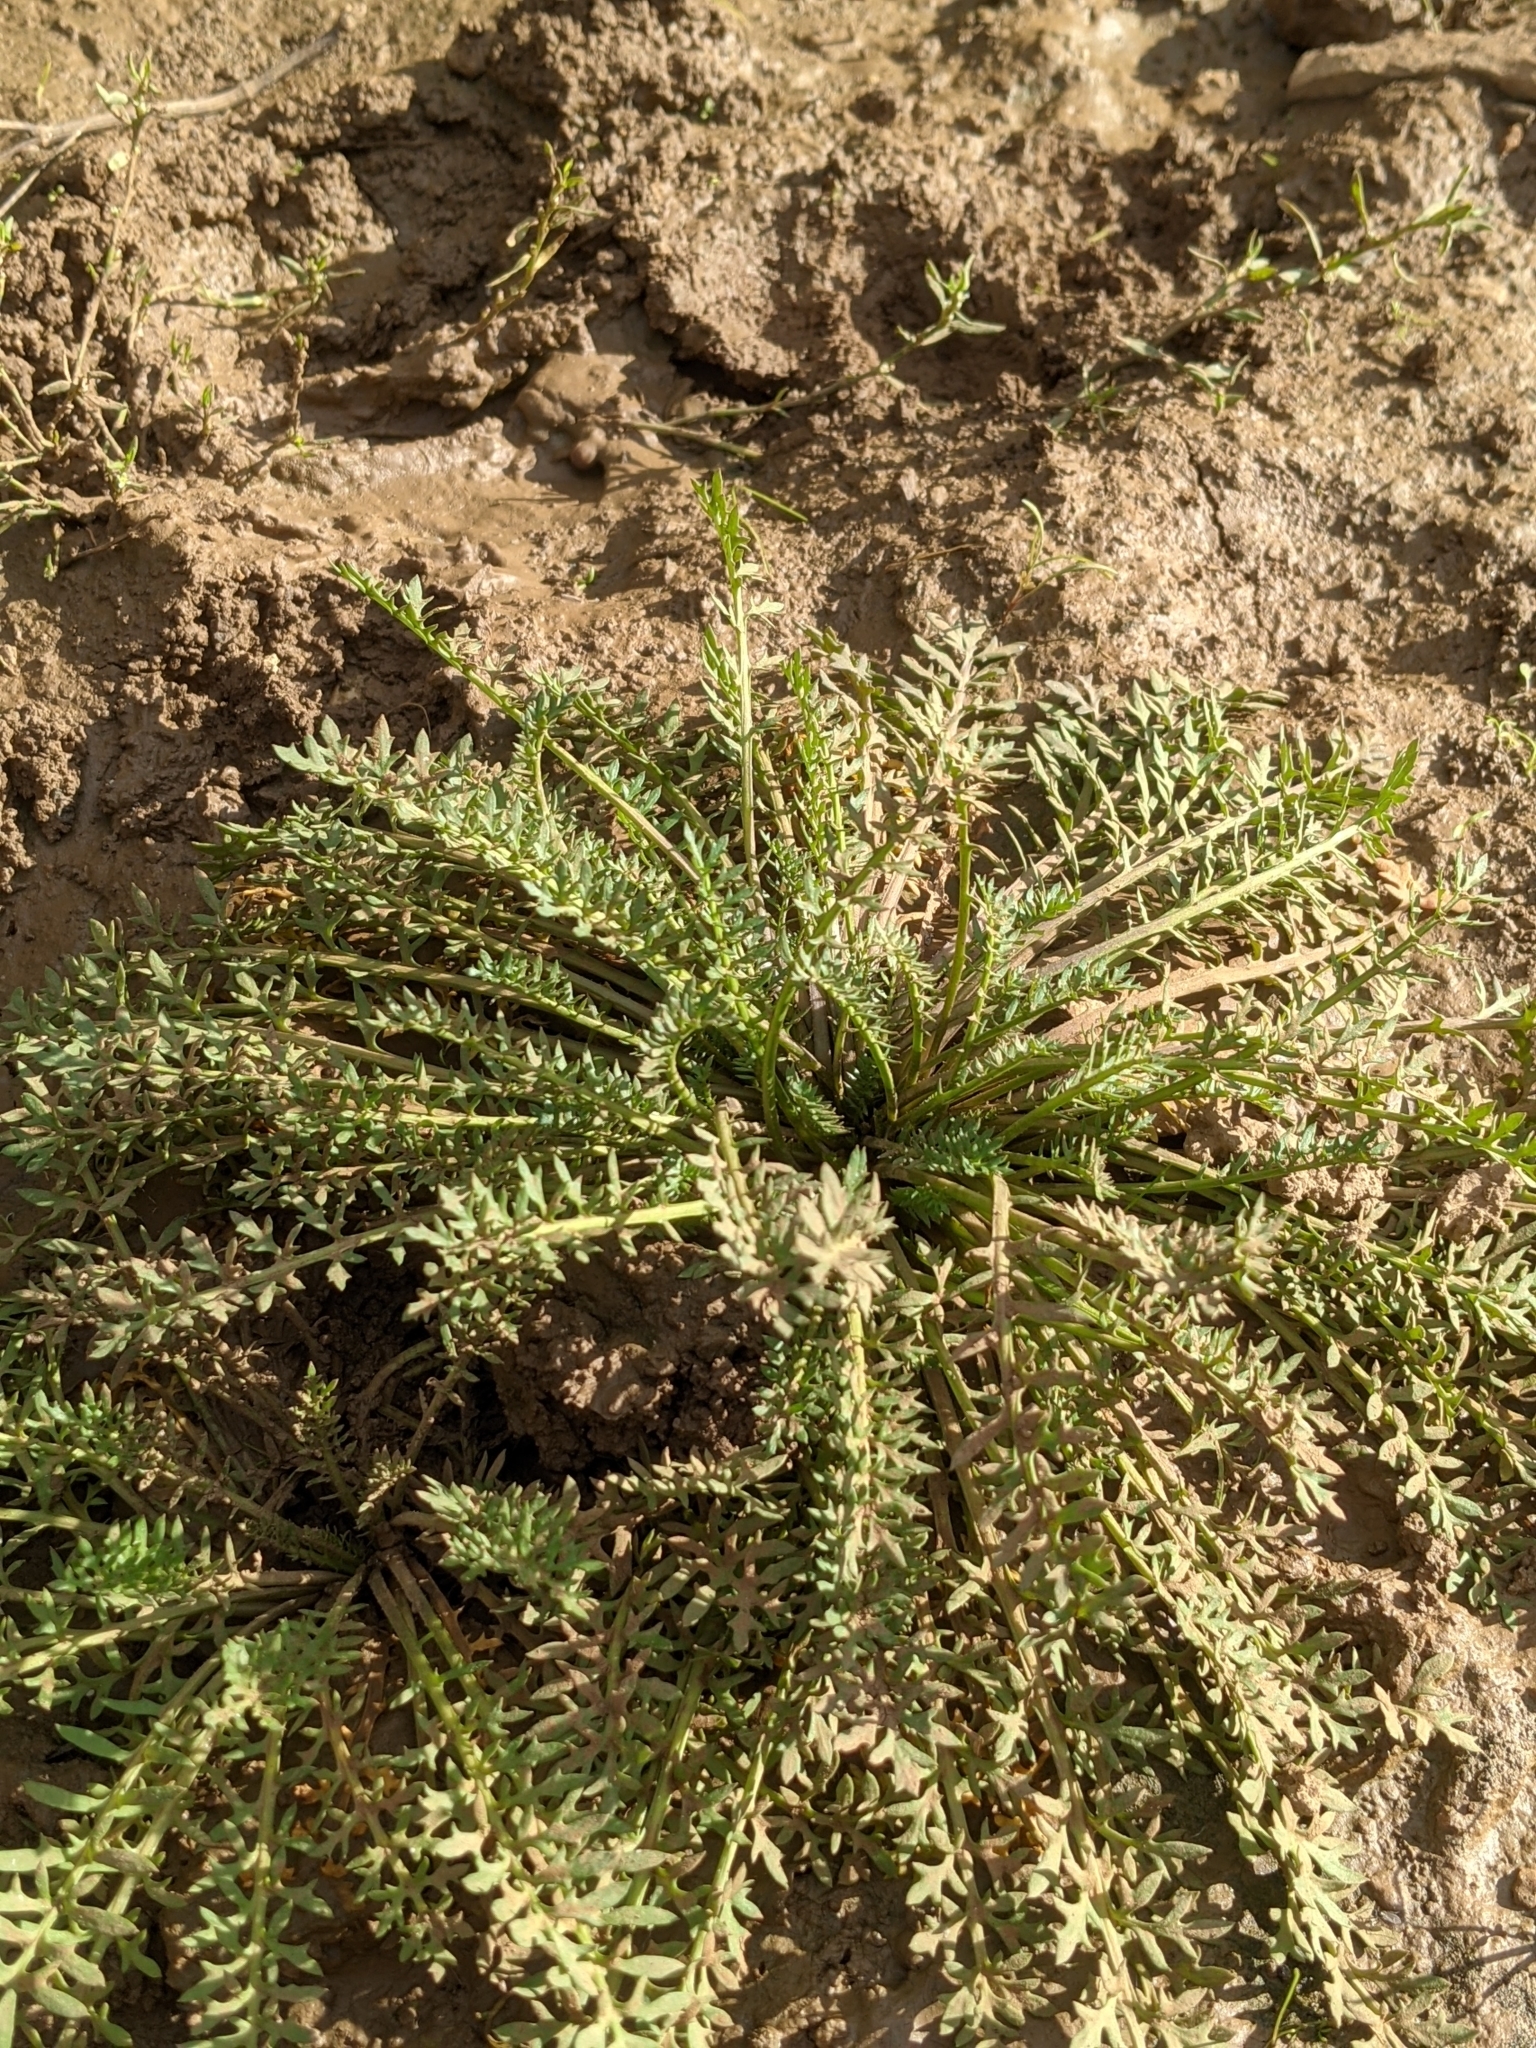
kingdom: Plantae
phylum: Tracheophyta
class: Magnoliopsida
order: Brassicales
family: Brassicaceae
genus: Sisymbrella
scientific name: Sisymbrella aspera
